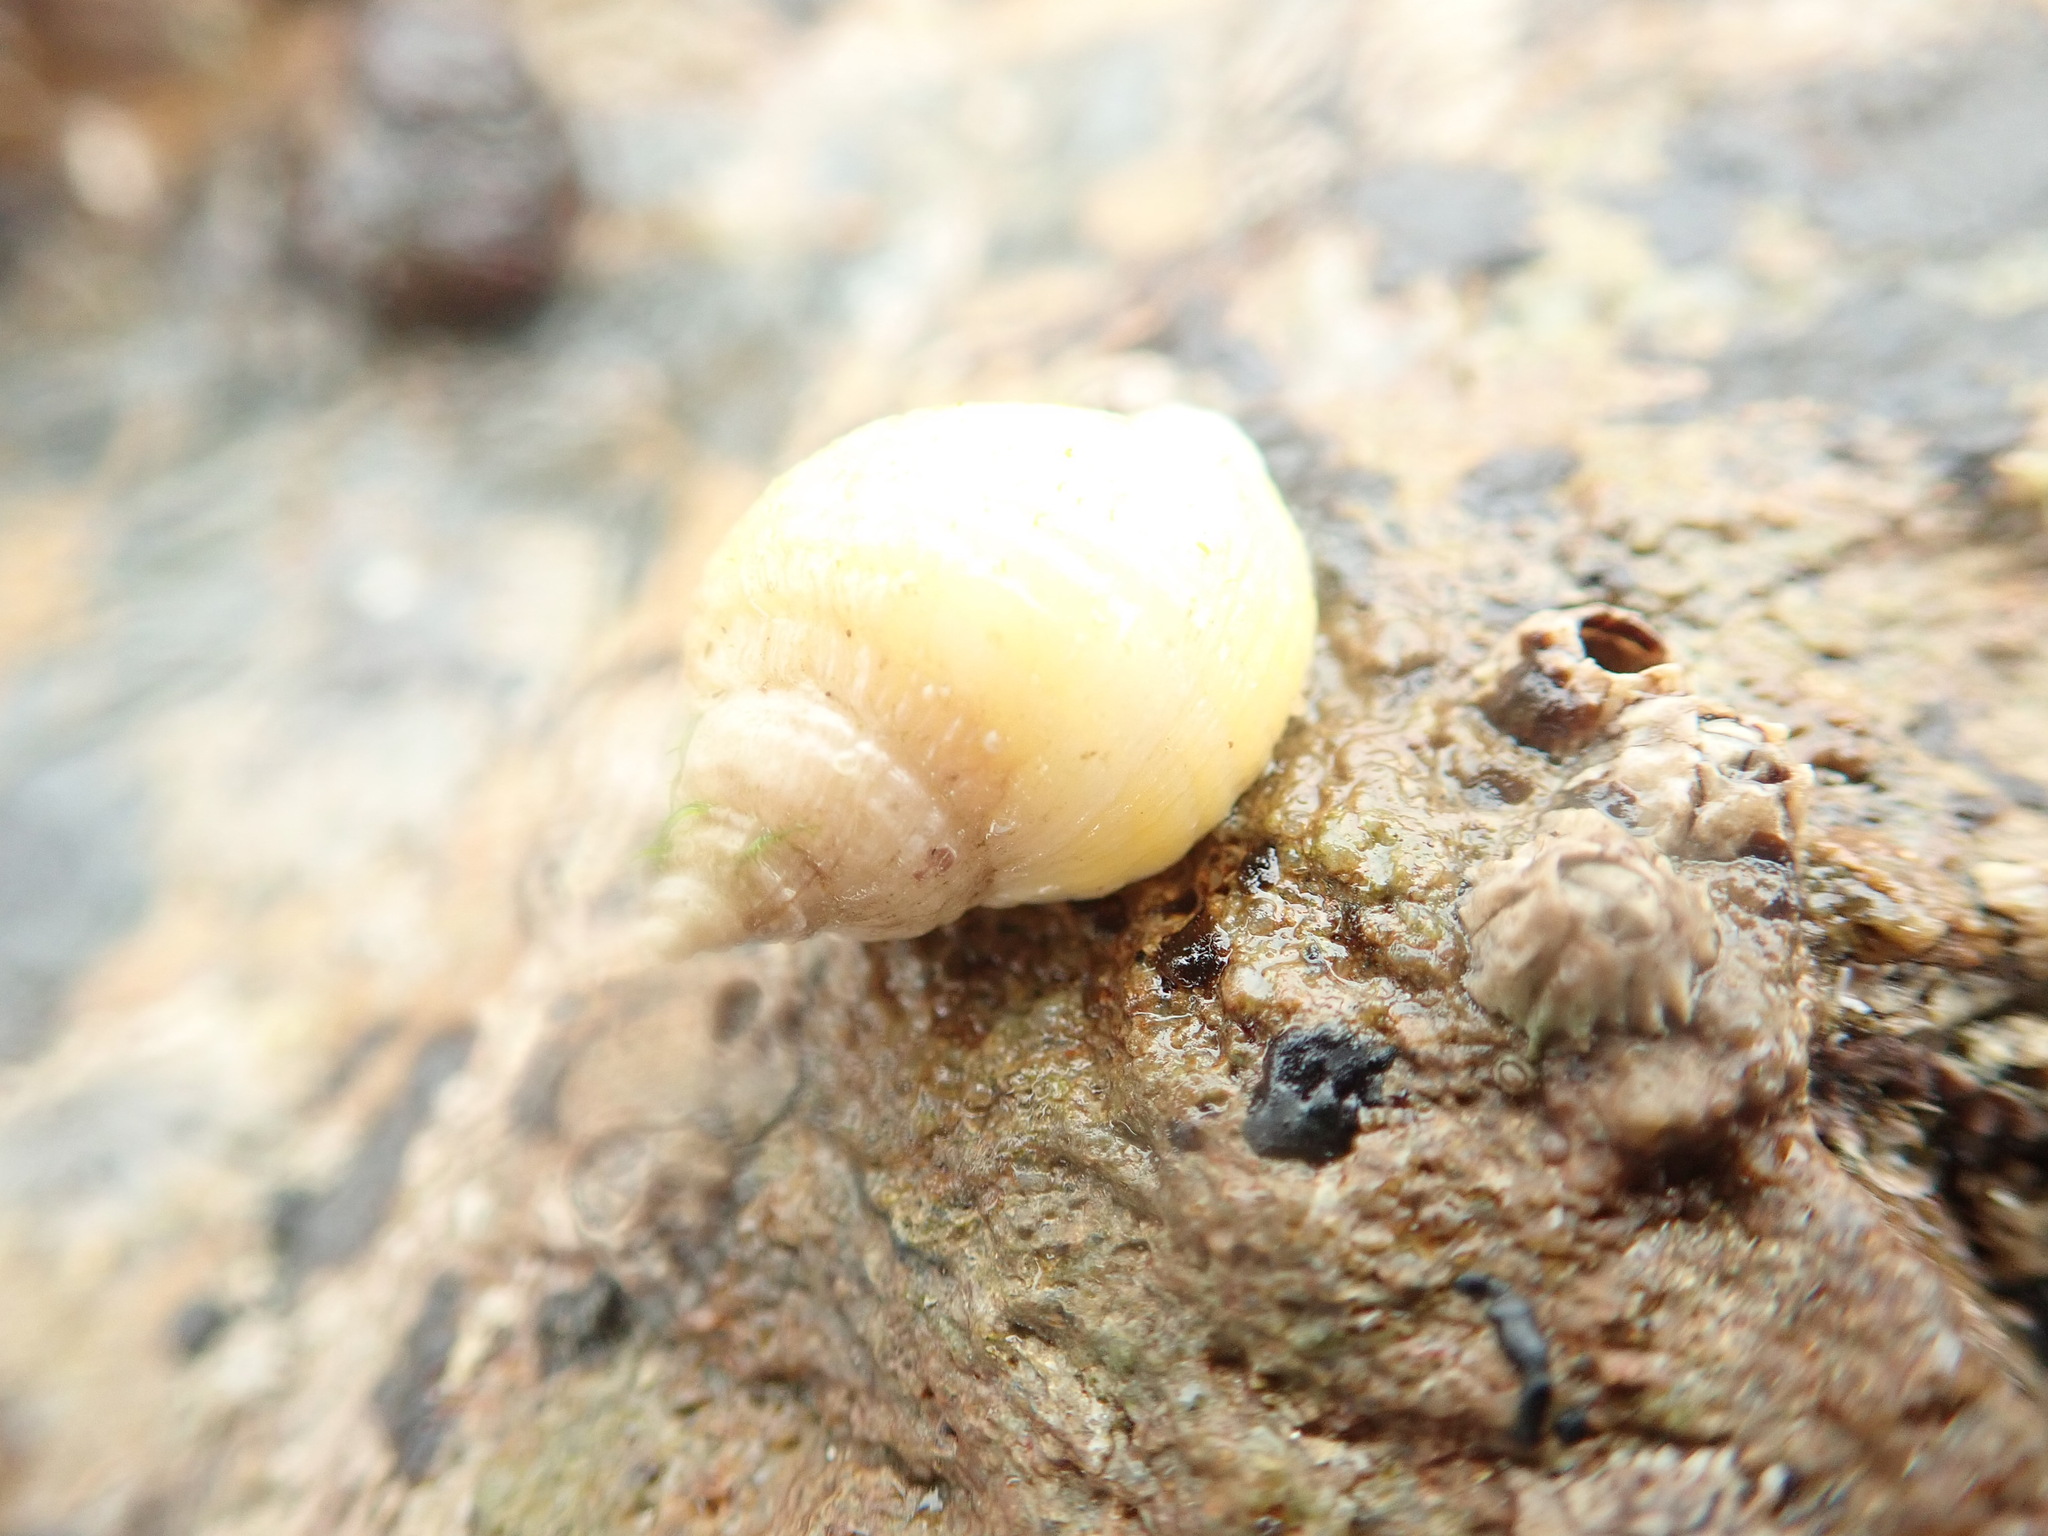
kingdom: Animalia
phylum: Mollusca
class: Gastropoda
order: Neogastropoda
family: Muricidae
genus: Nucella
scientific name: Nucella lapillus
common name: Dog whelk
